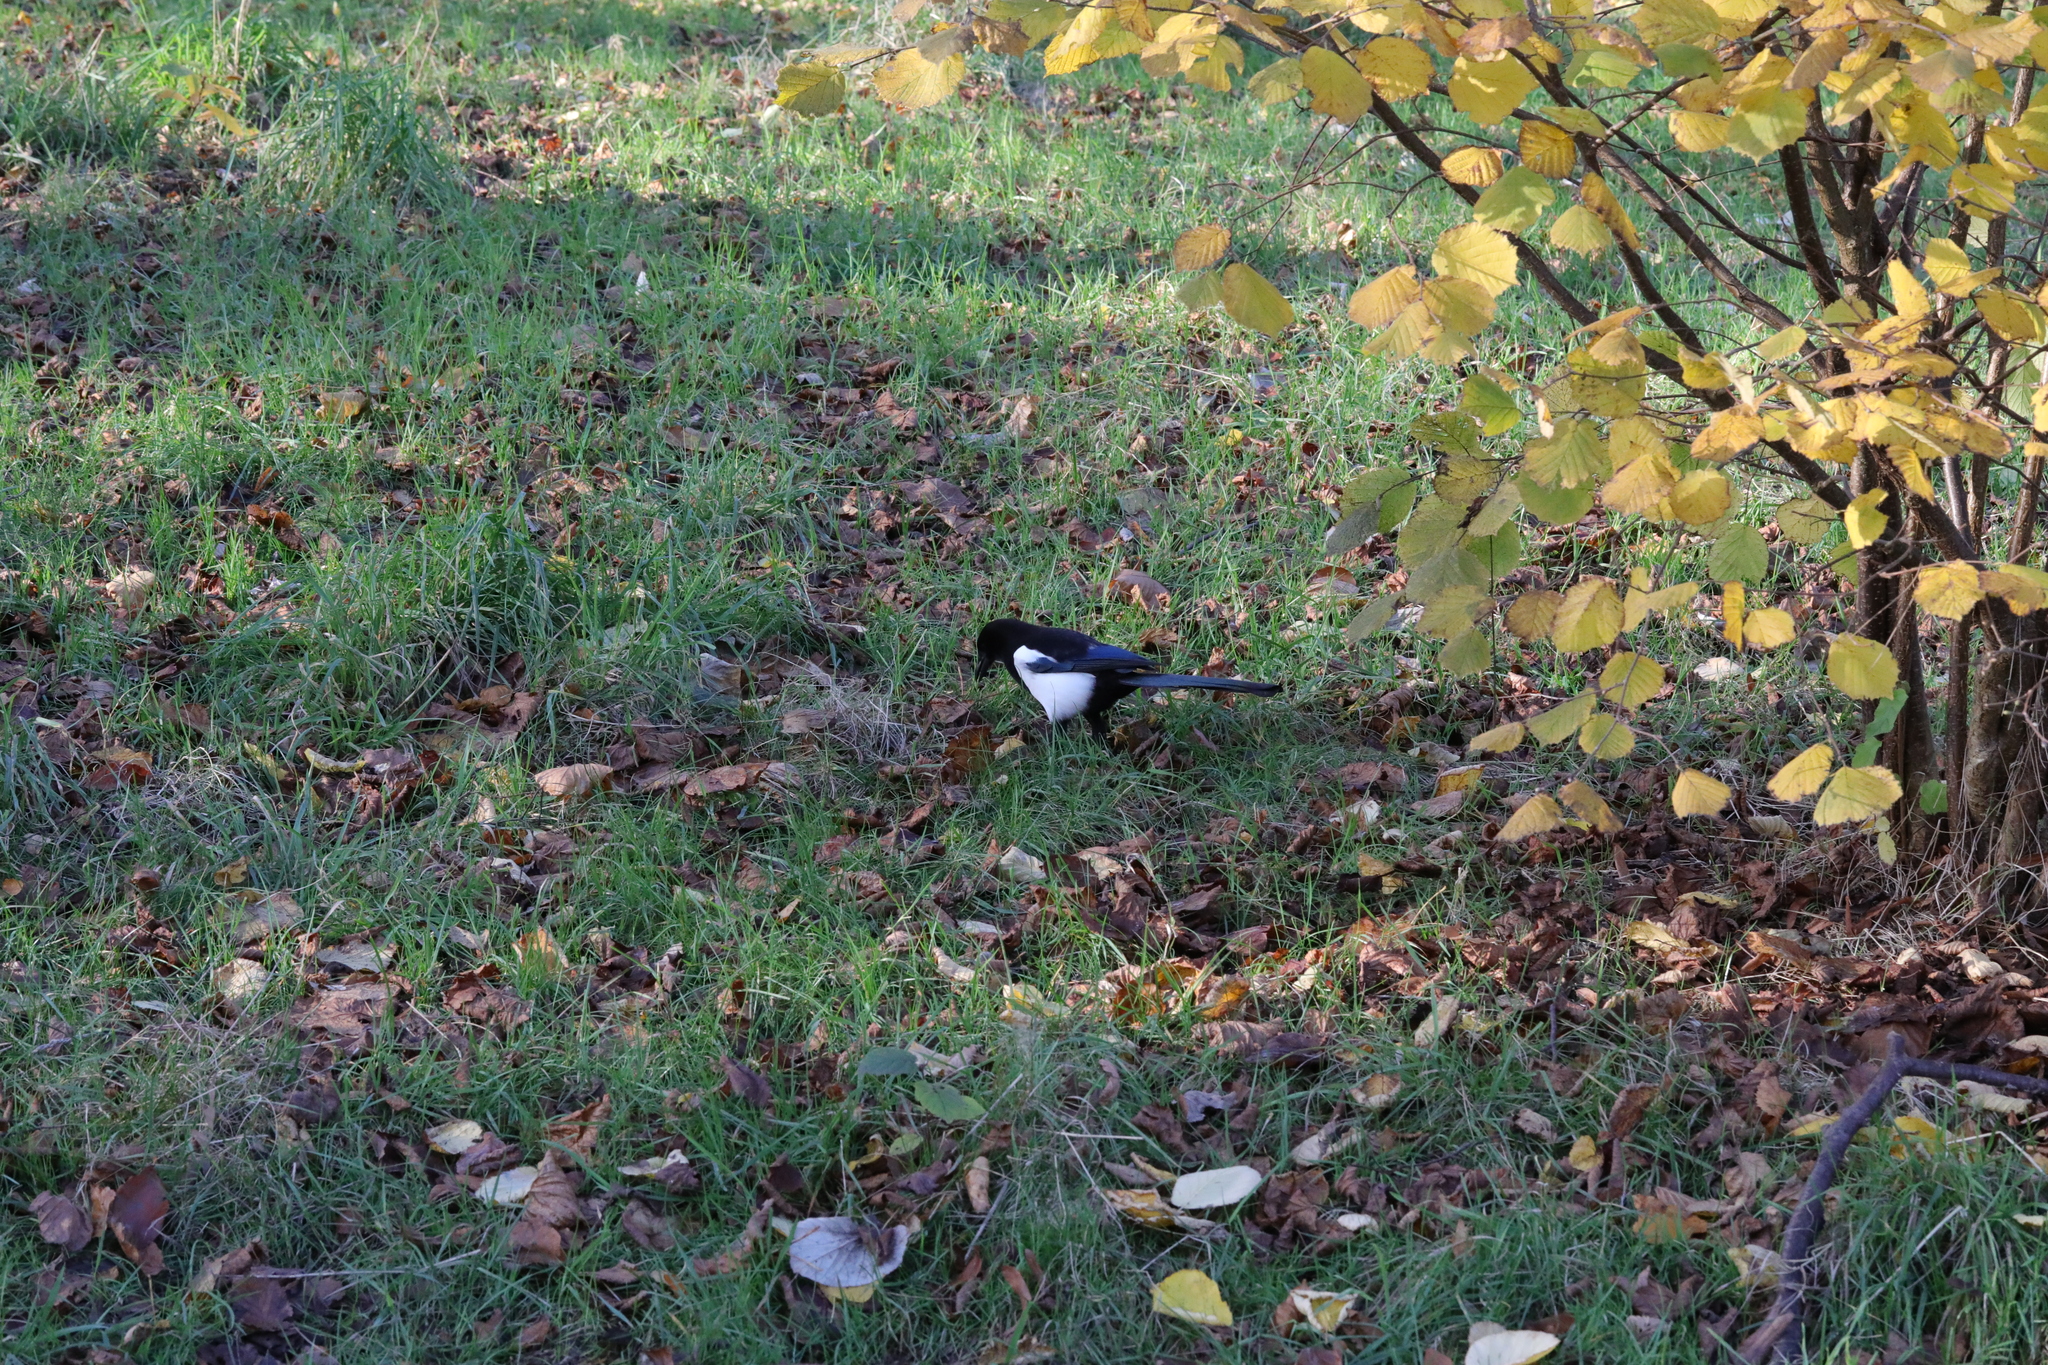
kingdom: Animalia
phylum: Chordata
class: Aves
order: Passeriformes
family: Corvidae
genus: Pica
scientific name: Pica pica
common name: Eurasian magpie
